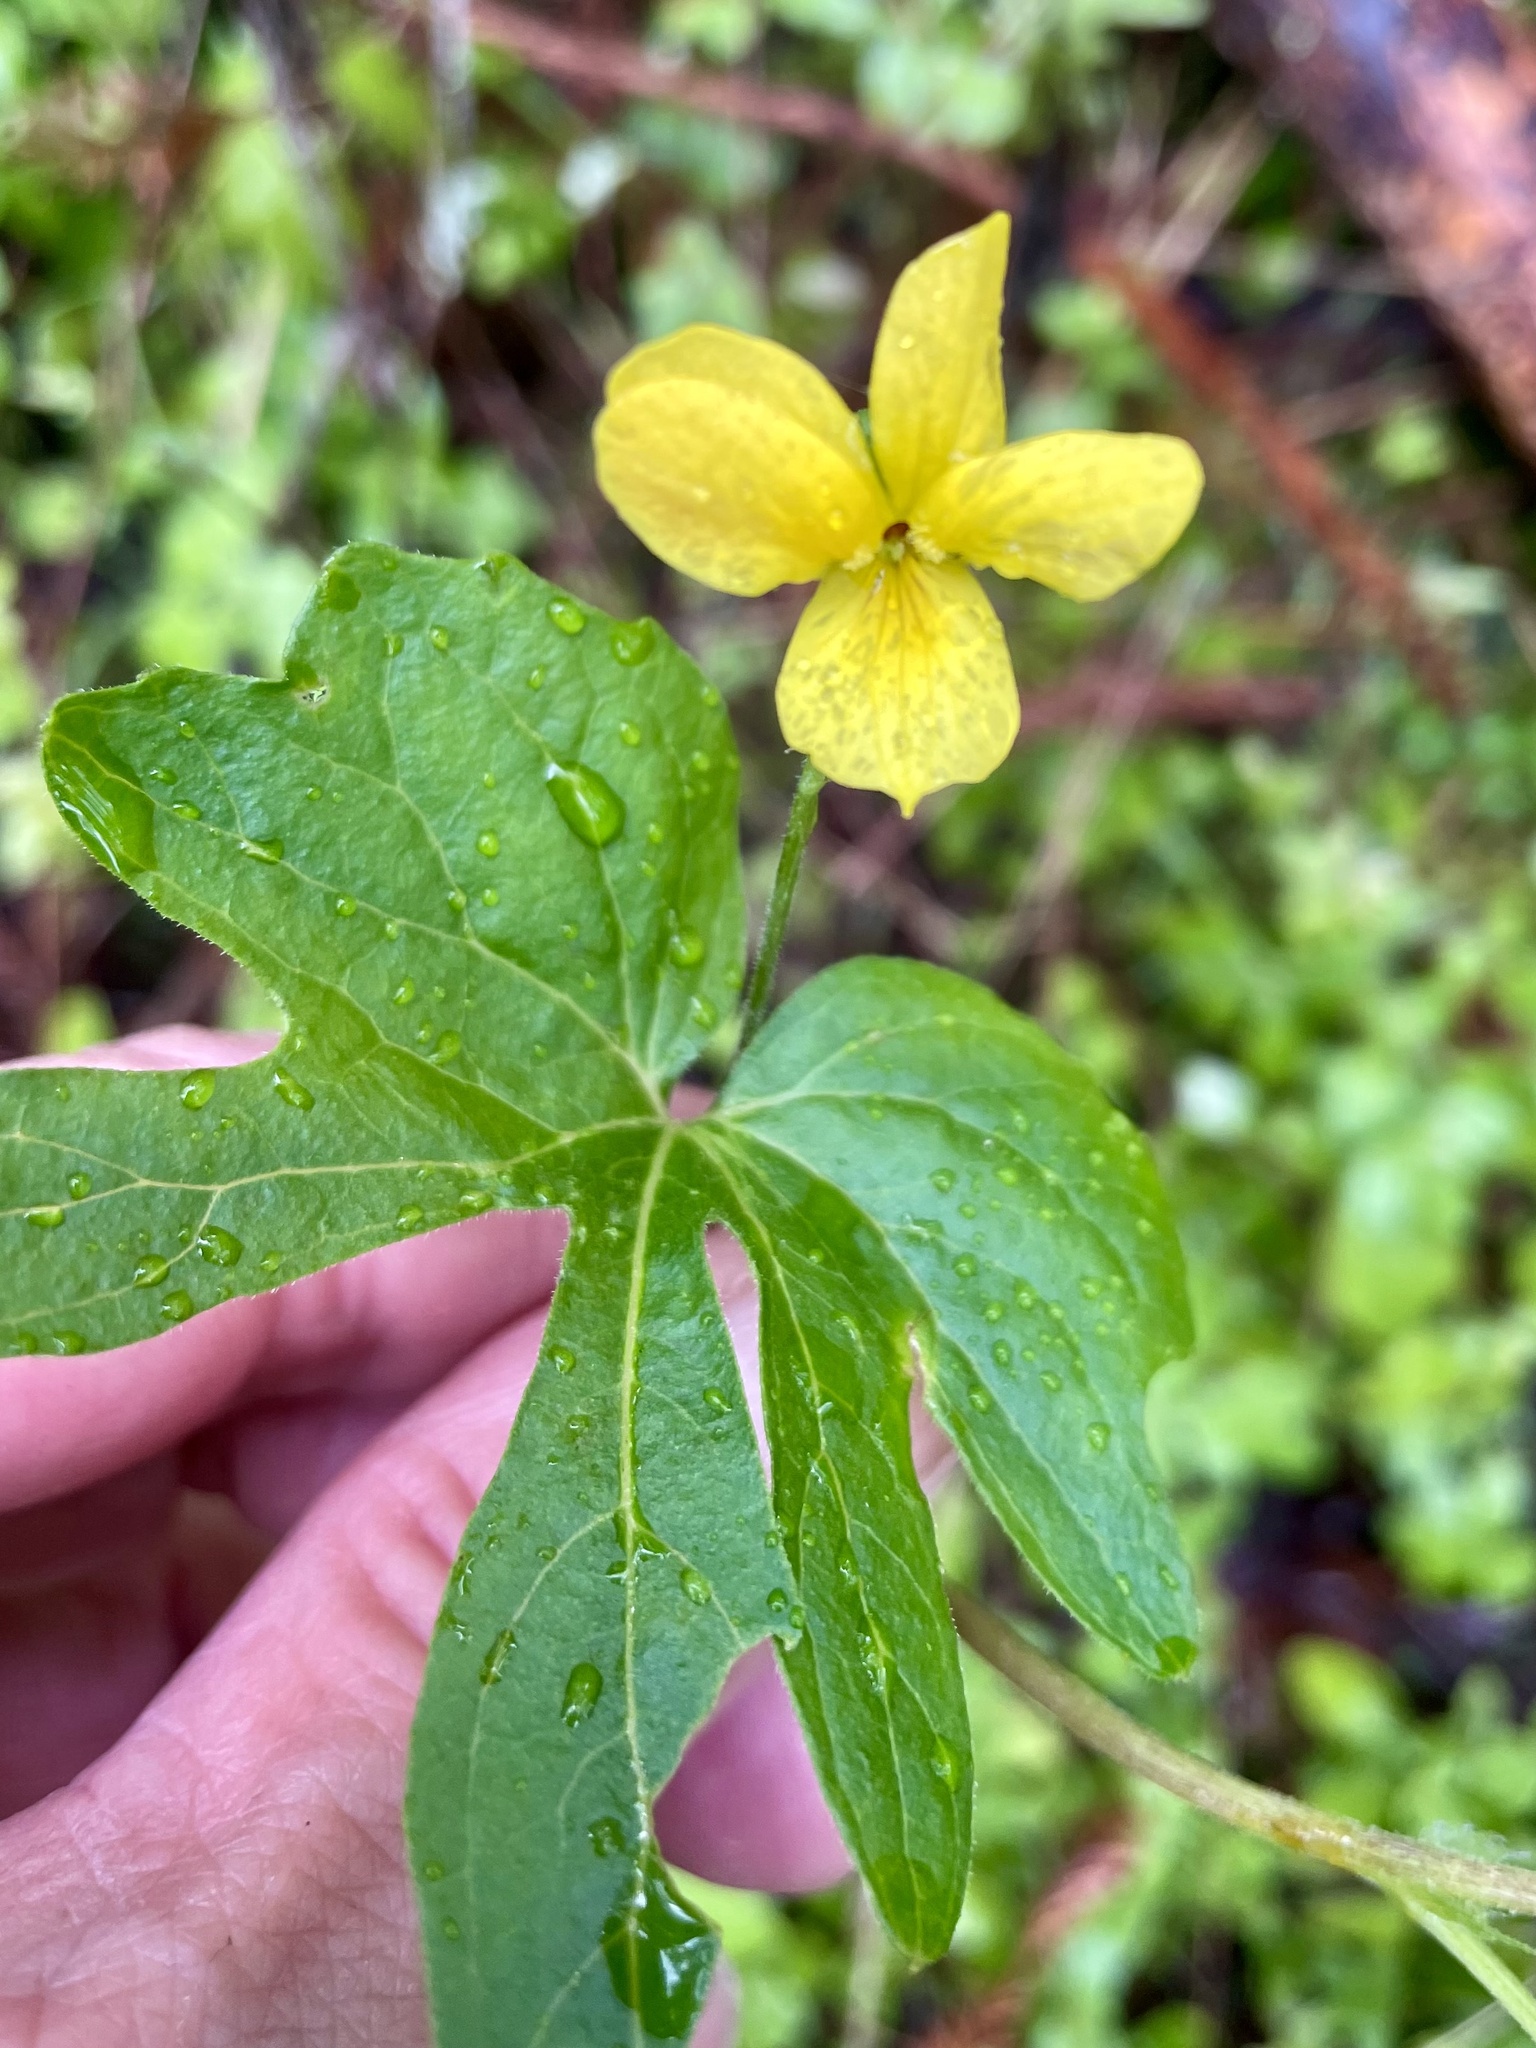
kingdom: Plantae
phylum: Tracheophyta
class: Magnoliopsida
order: Malpighiales
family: Violaceae
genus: Viola
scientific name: Viola lobata
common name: Pine violet
